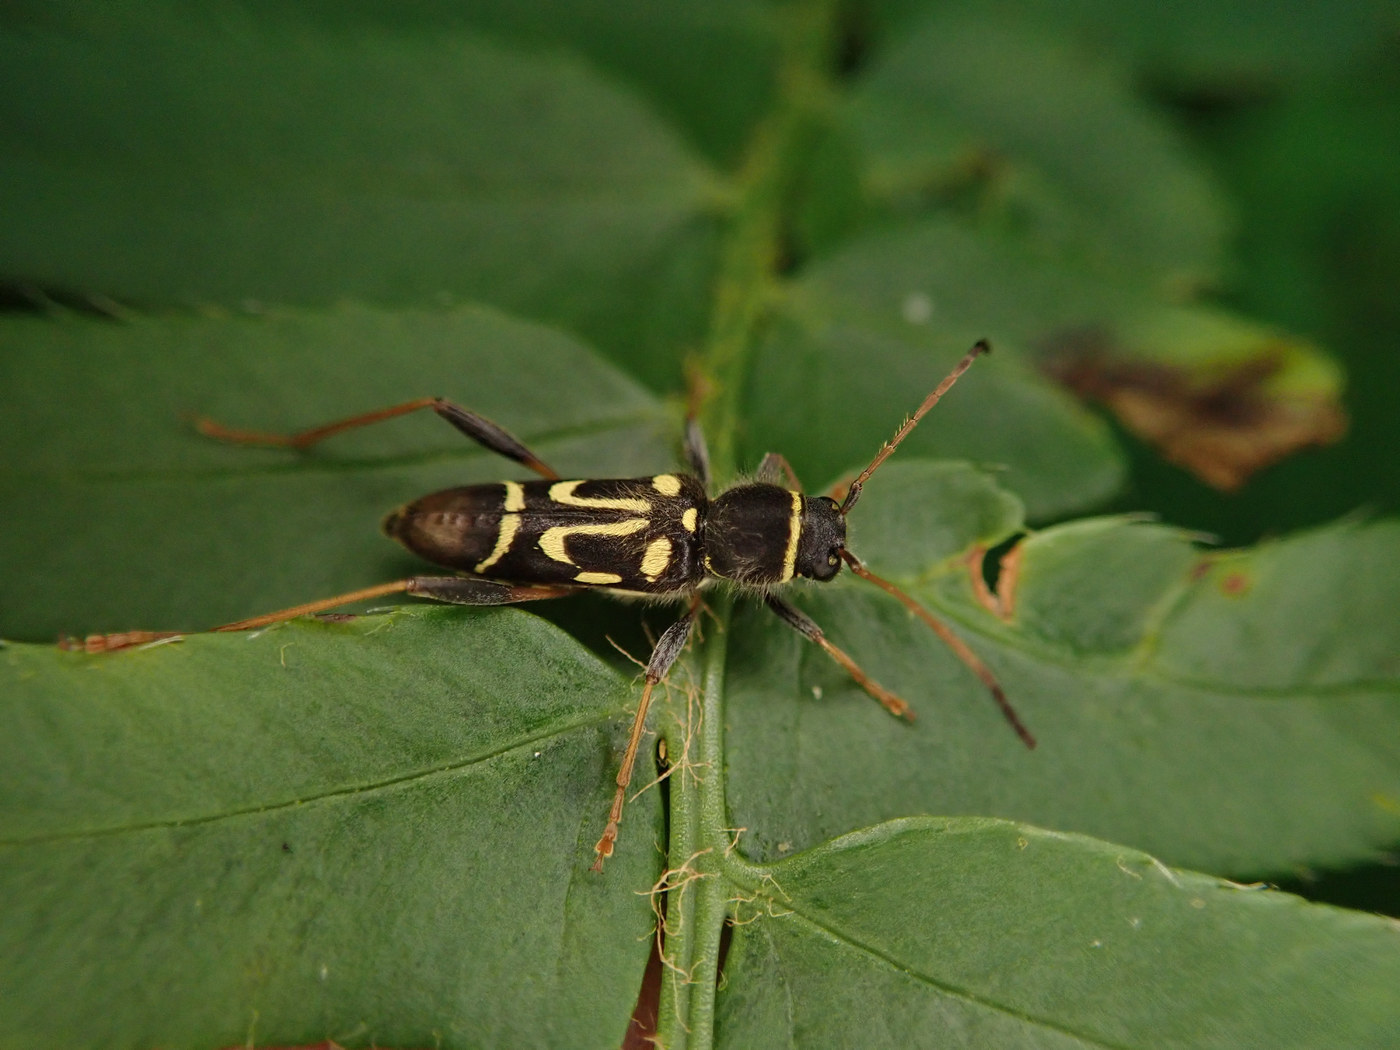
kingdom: Animalia
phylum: Arthropoda
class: Insecta
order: Coleoptera
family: Cerambycidae
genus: Clytus
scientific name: Clytus ruricola
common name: Round-necked longhorn beetle
